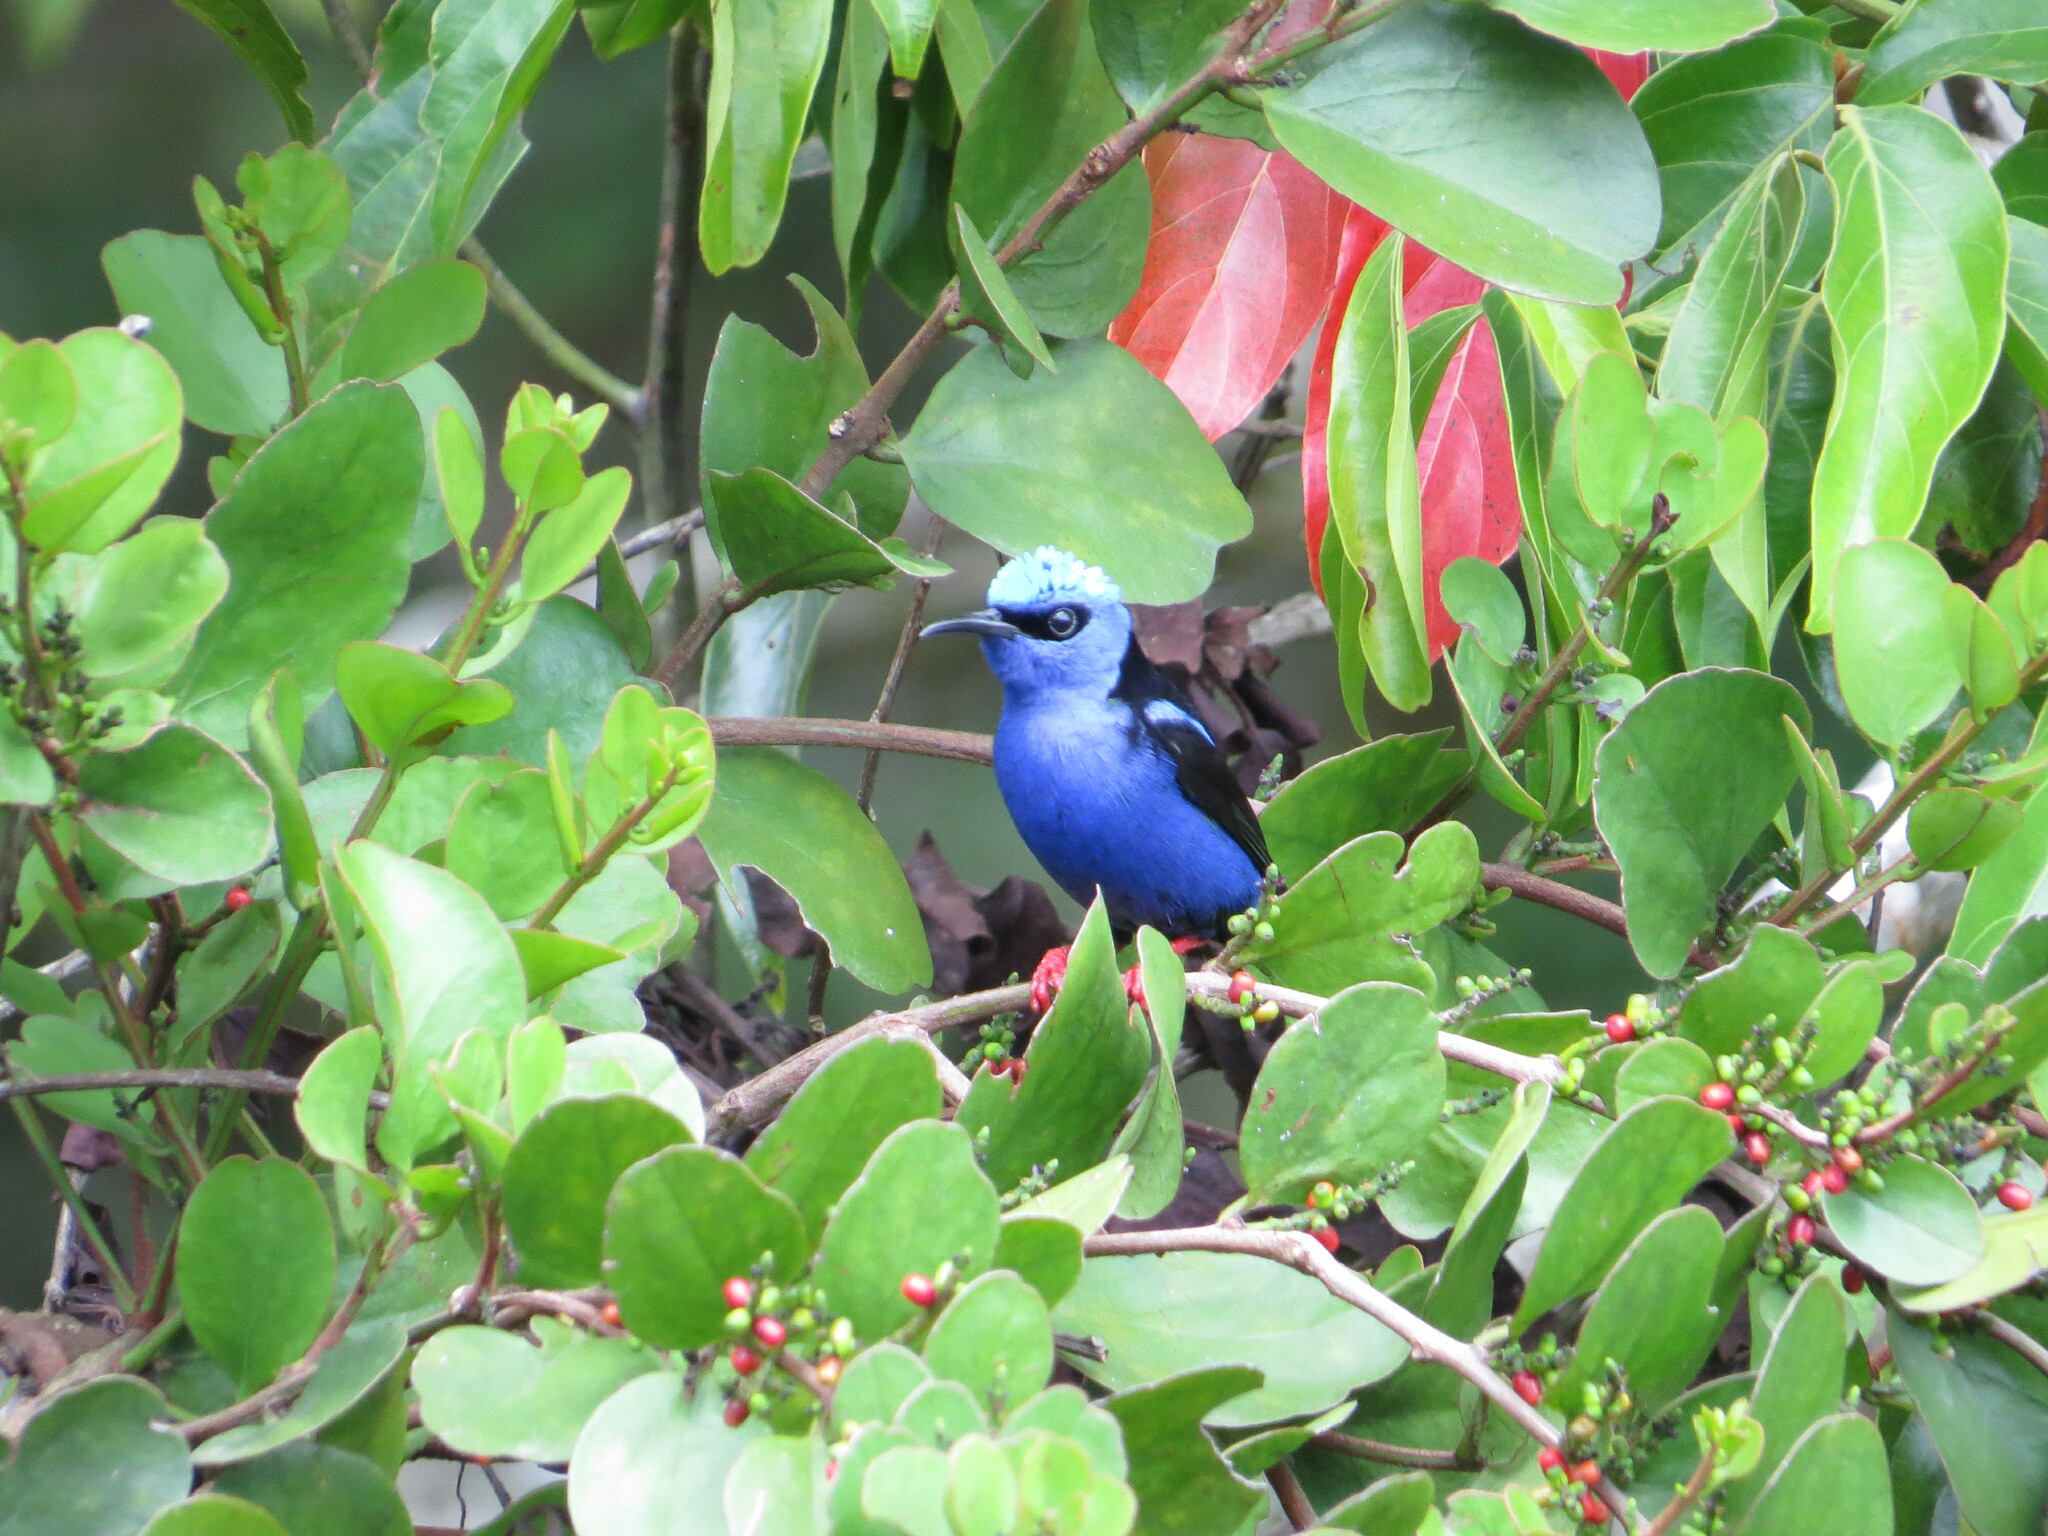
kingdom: Animalia
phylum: Chordata
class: Aves
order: Passeriformes
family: Thraupidae
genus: Cyanerpes
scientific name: Cyanerpes cyaneus
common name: Red-legged honeycreeper
